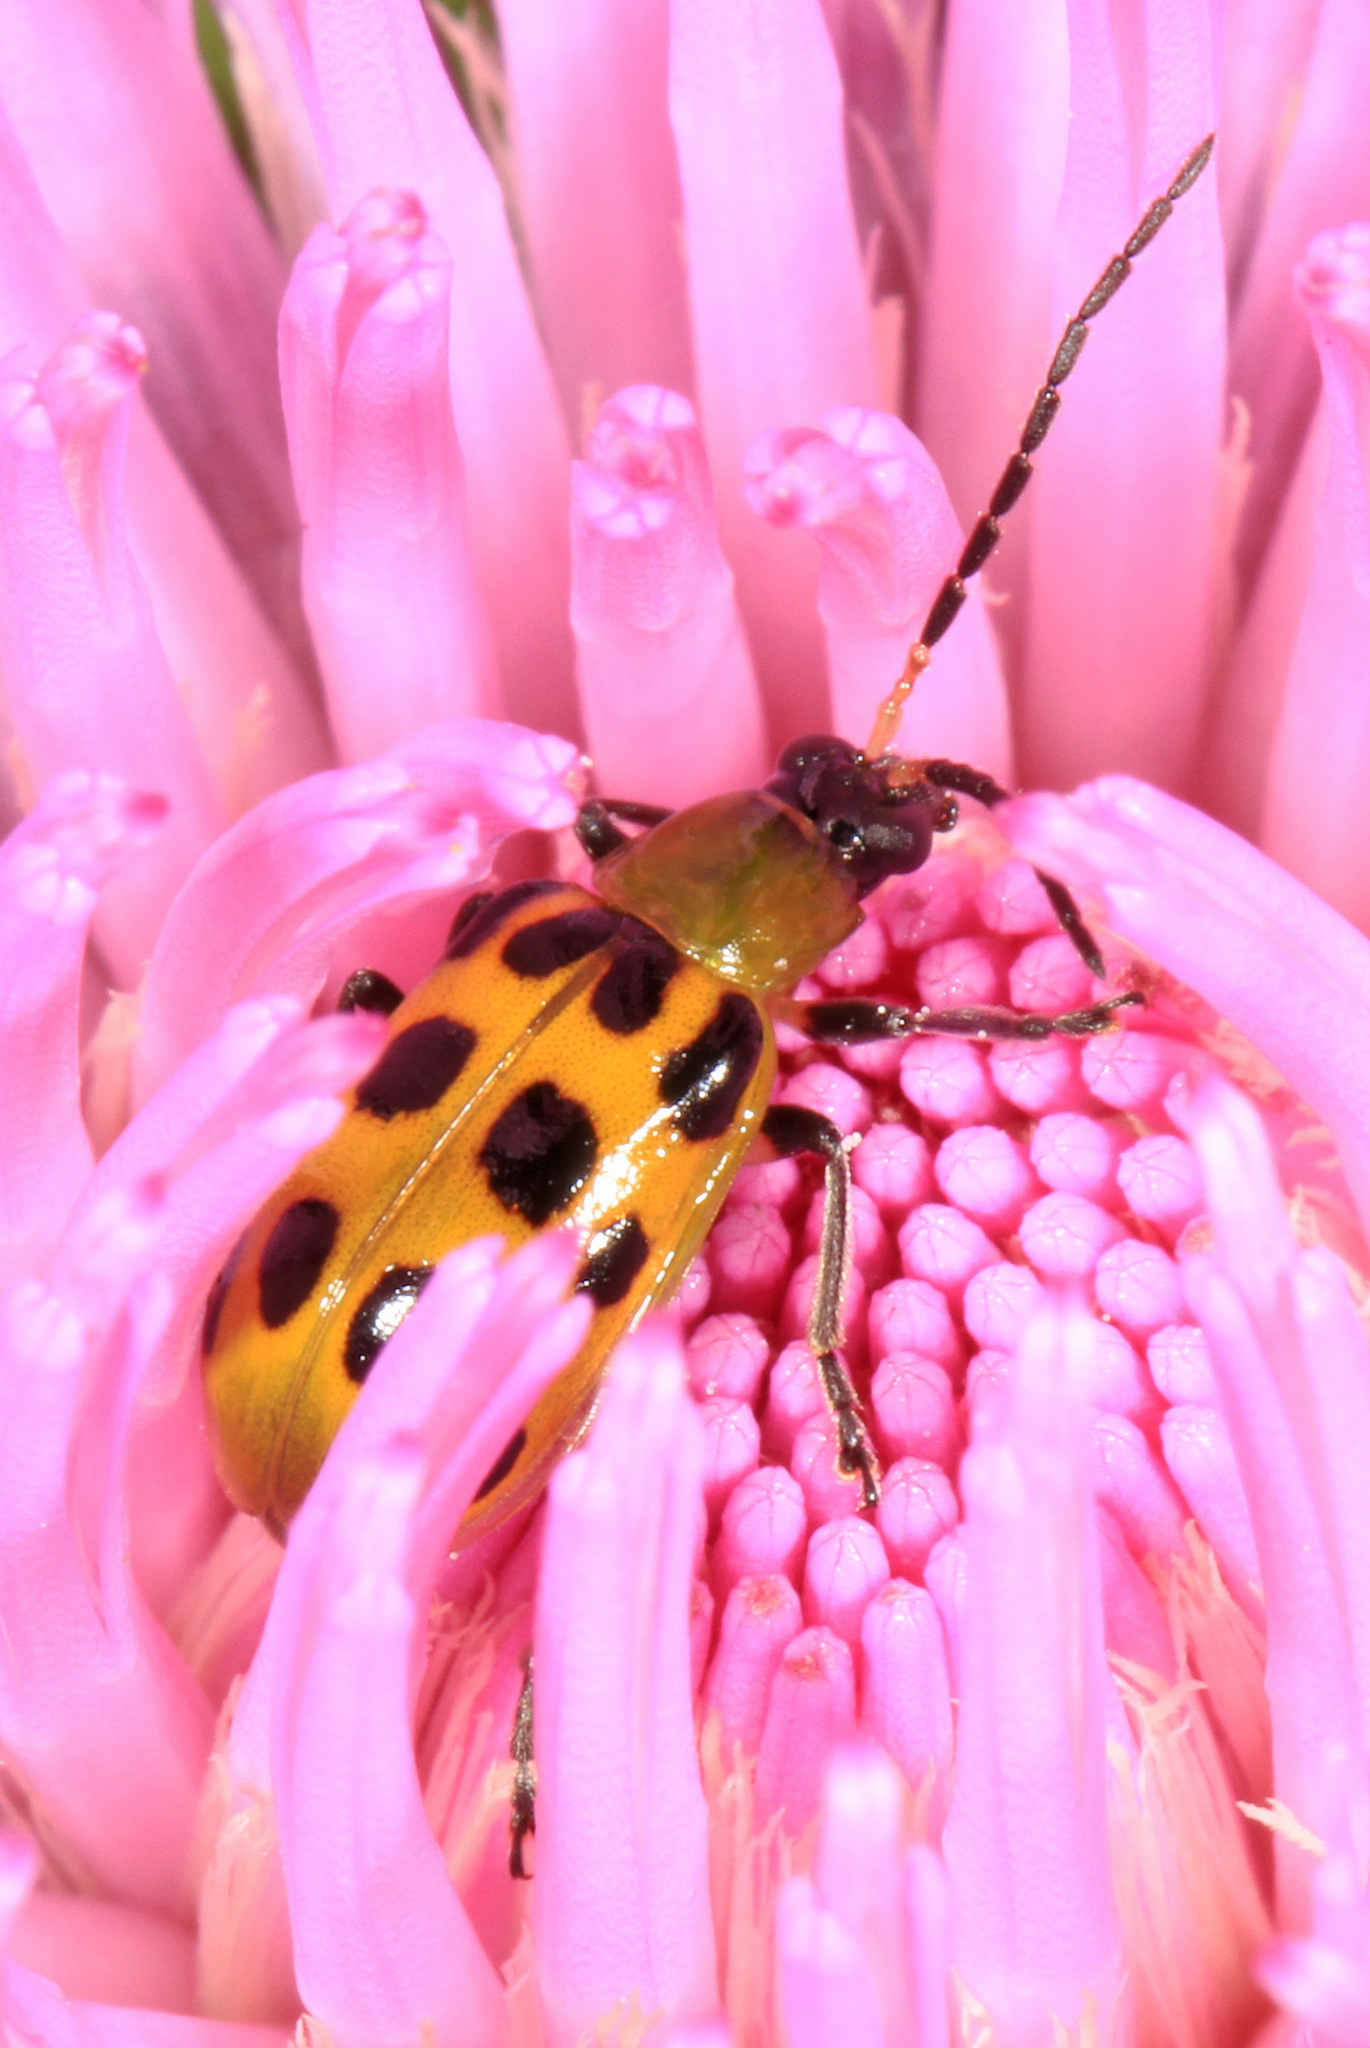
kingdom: Animalia
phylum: Arthropoda
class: Insecta
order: Coleoptera
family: Chrysomelidae
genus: Diabrotica
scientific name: Diabrotica undecimpunctata
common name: Spotted cucumber beetle
